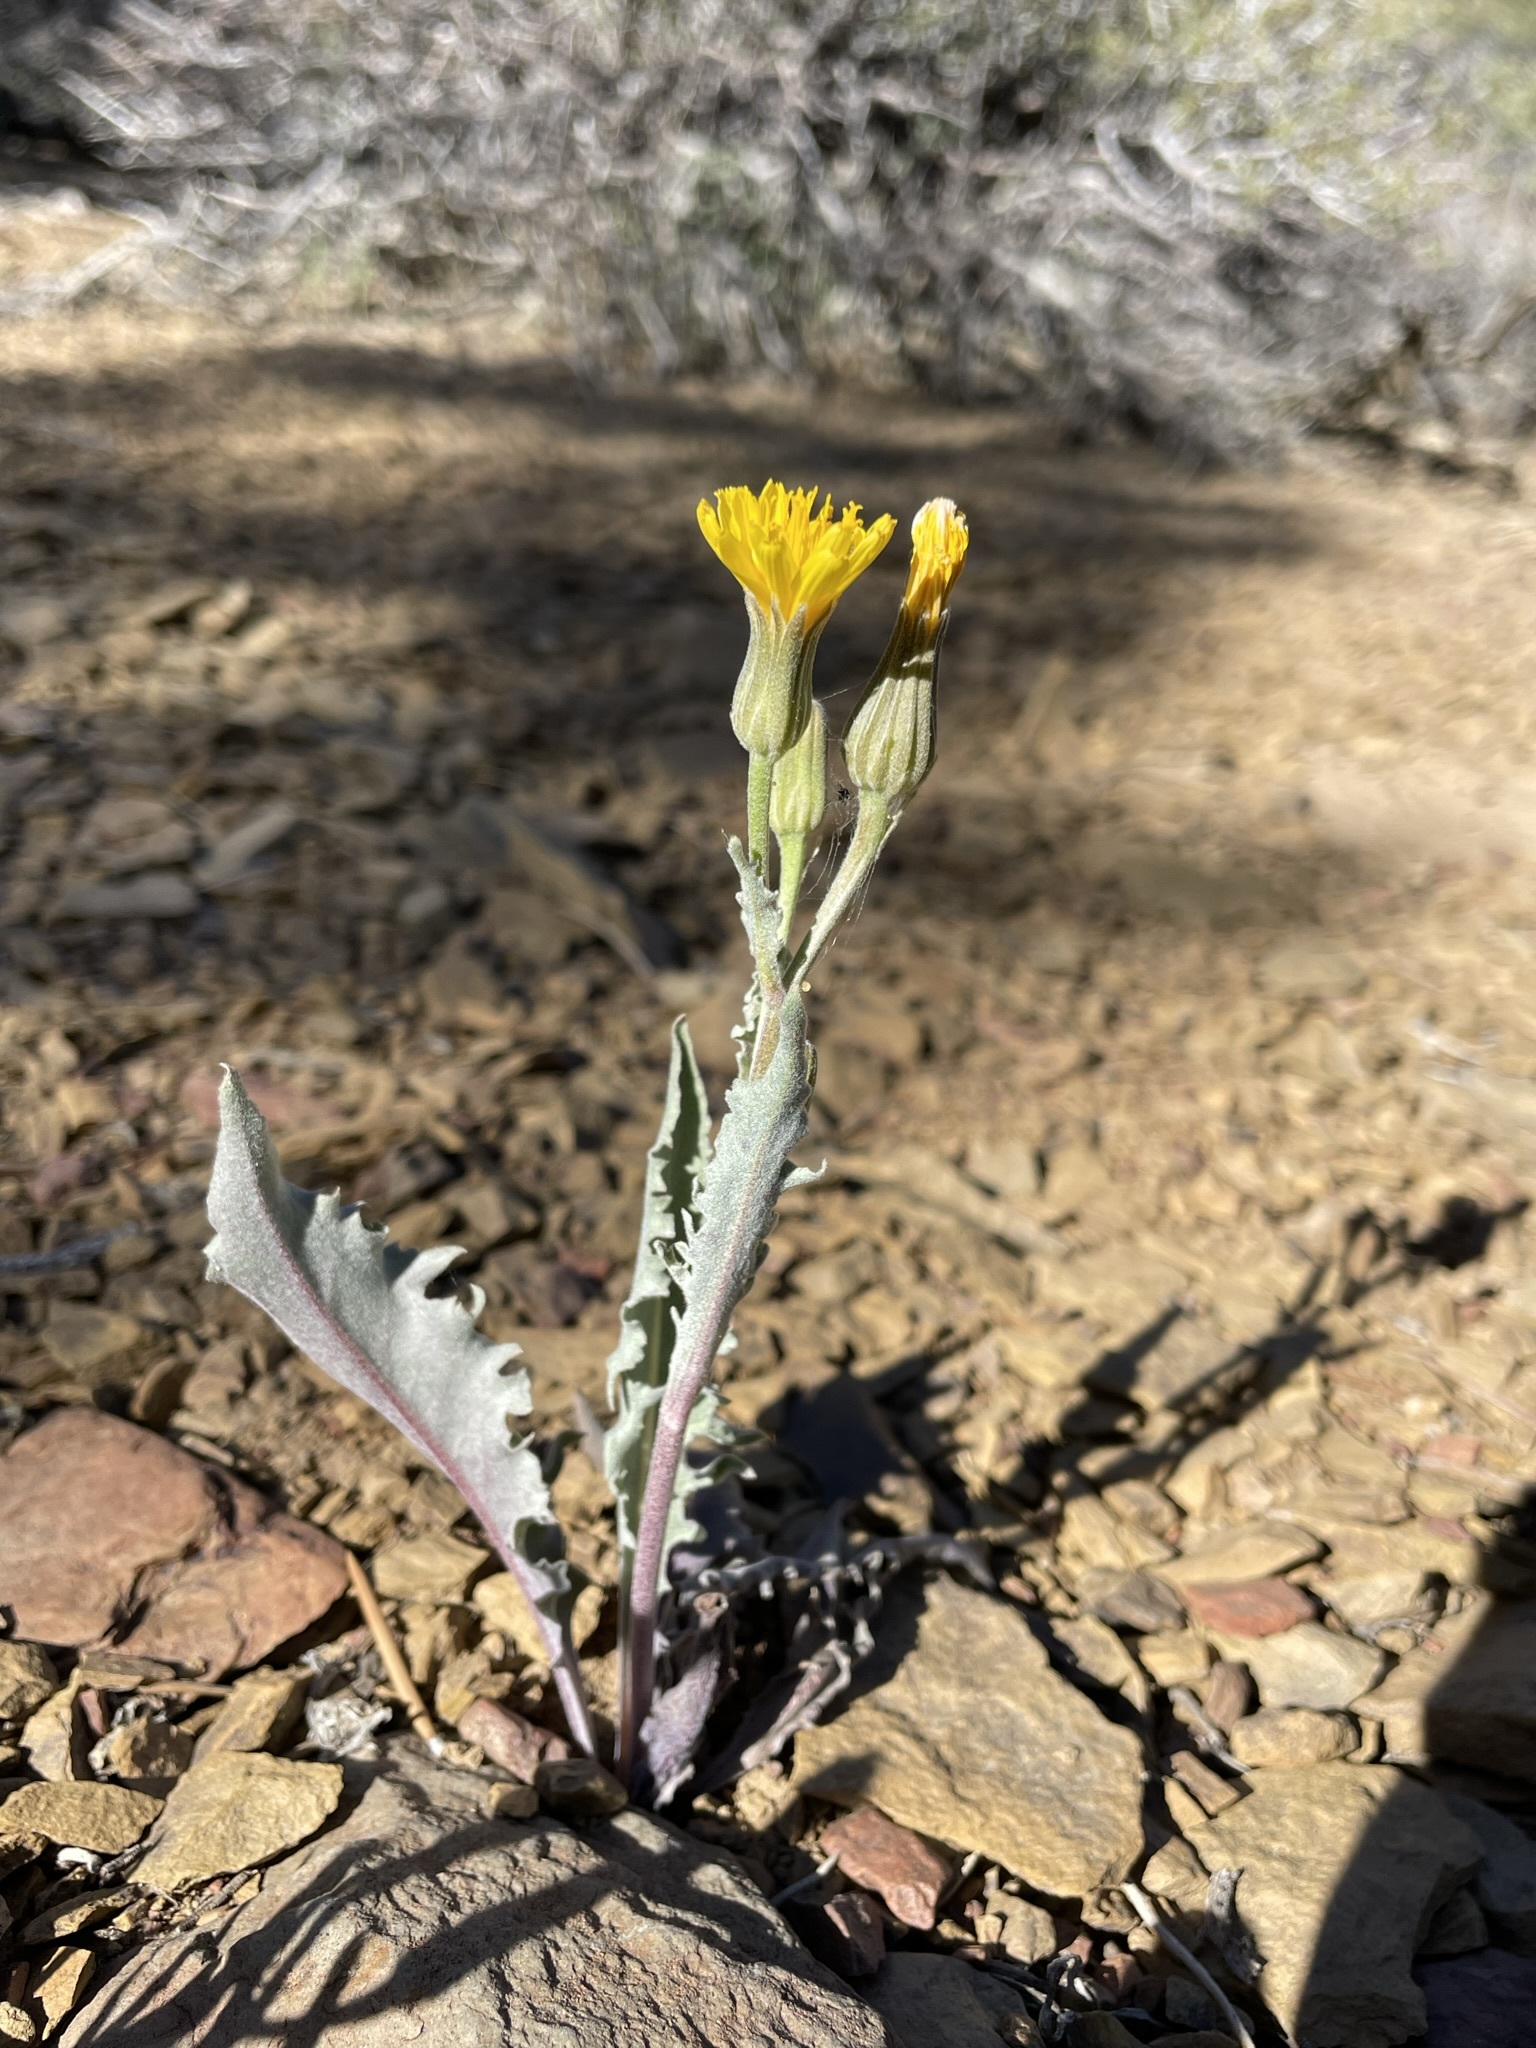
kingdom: Plantae
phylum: Tracheophyta
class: Magnoliopsida
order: Asterales
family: Asteraceae
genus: Crepis
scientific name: Crepis occidentalis
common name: Gray hawk's-beard
